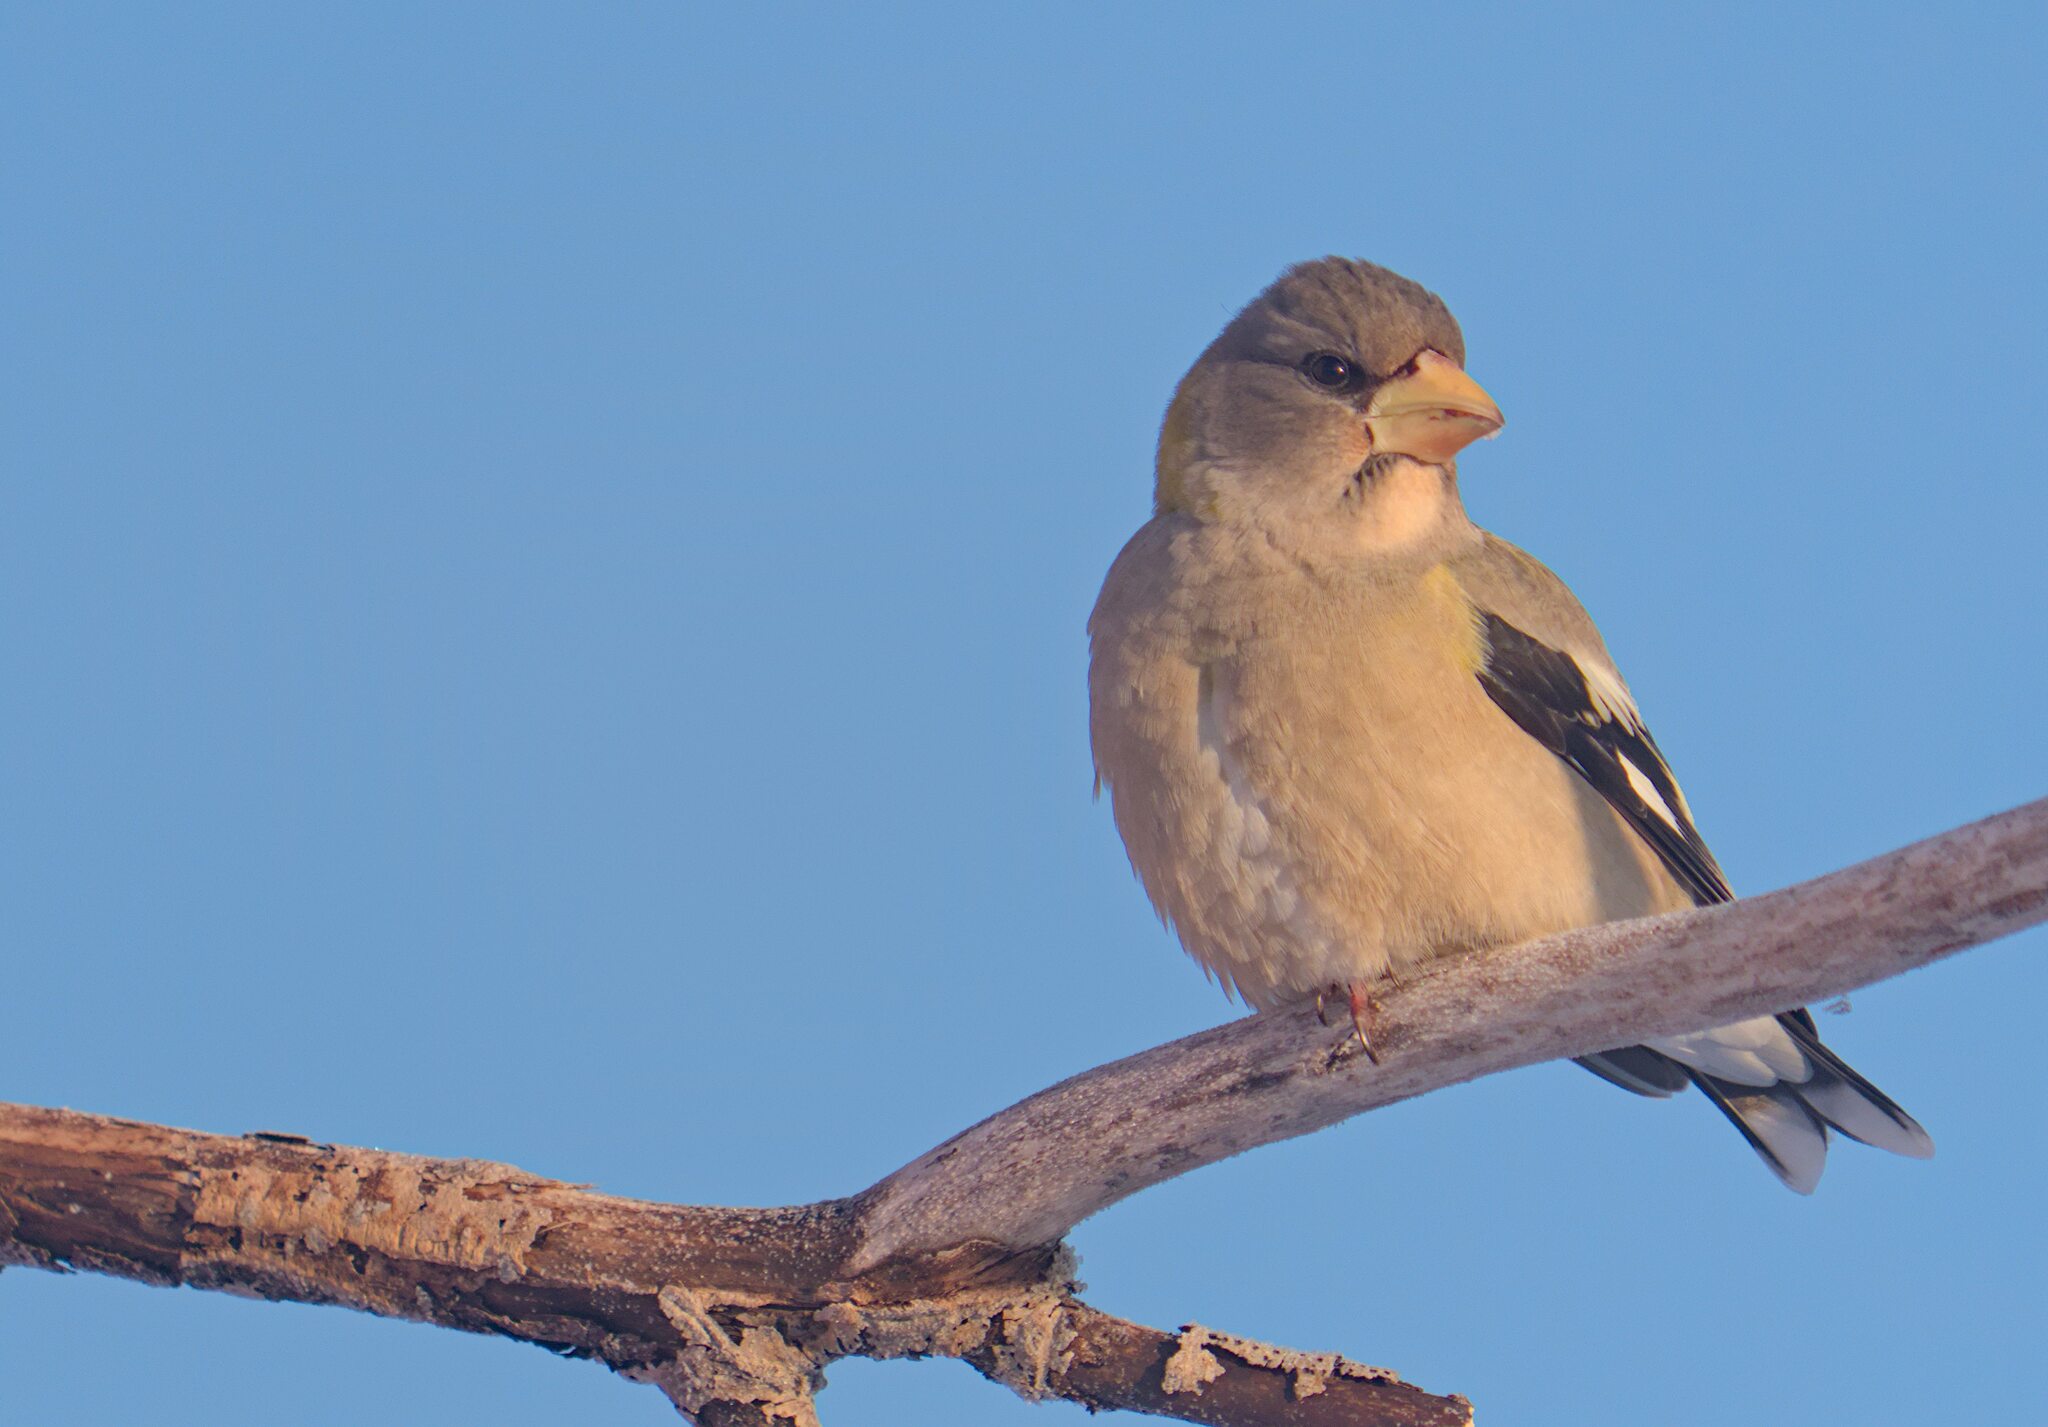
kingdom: Animalia
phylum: Chordata
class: Aves
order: Passeriformes
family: Fringillidae
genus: Hesperiphona
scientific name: Hesperiphona vespertina
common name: Evening grosbeak
